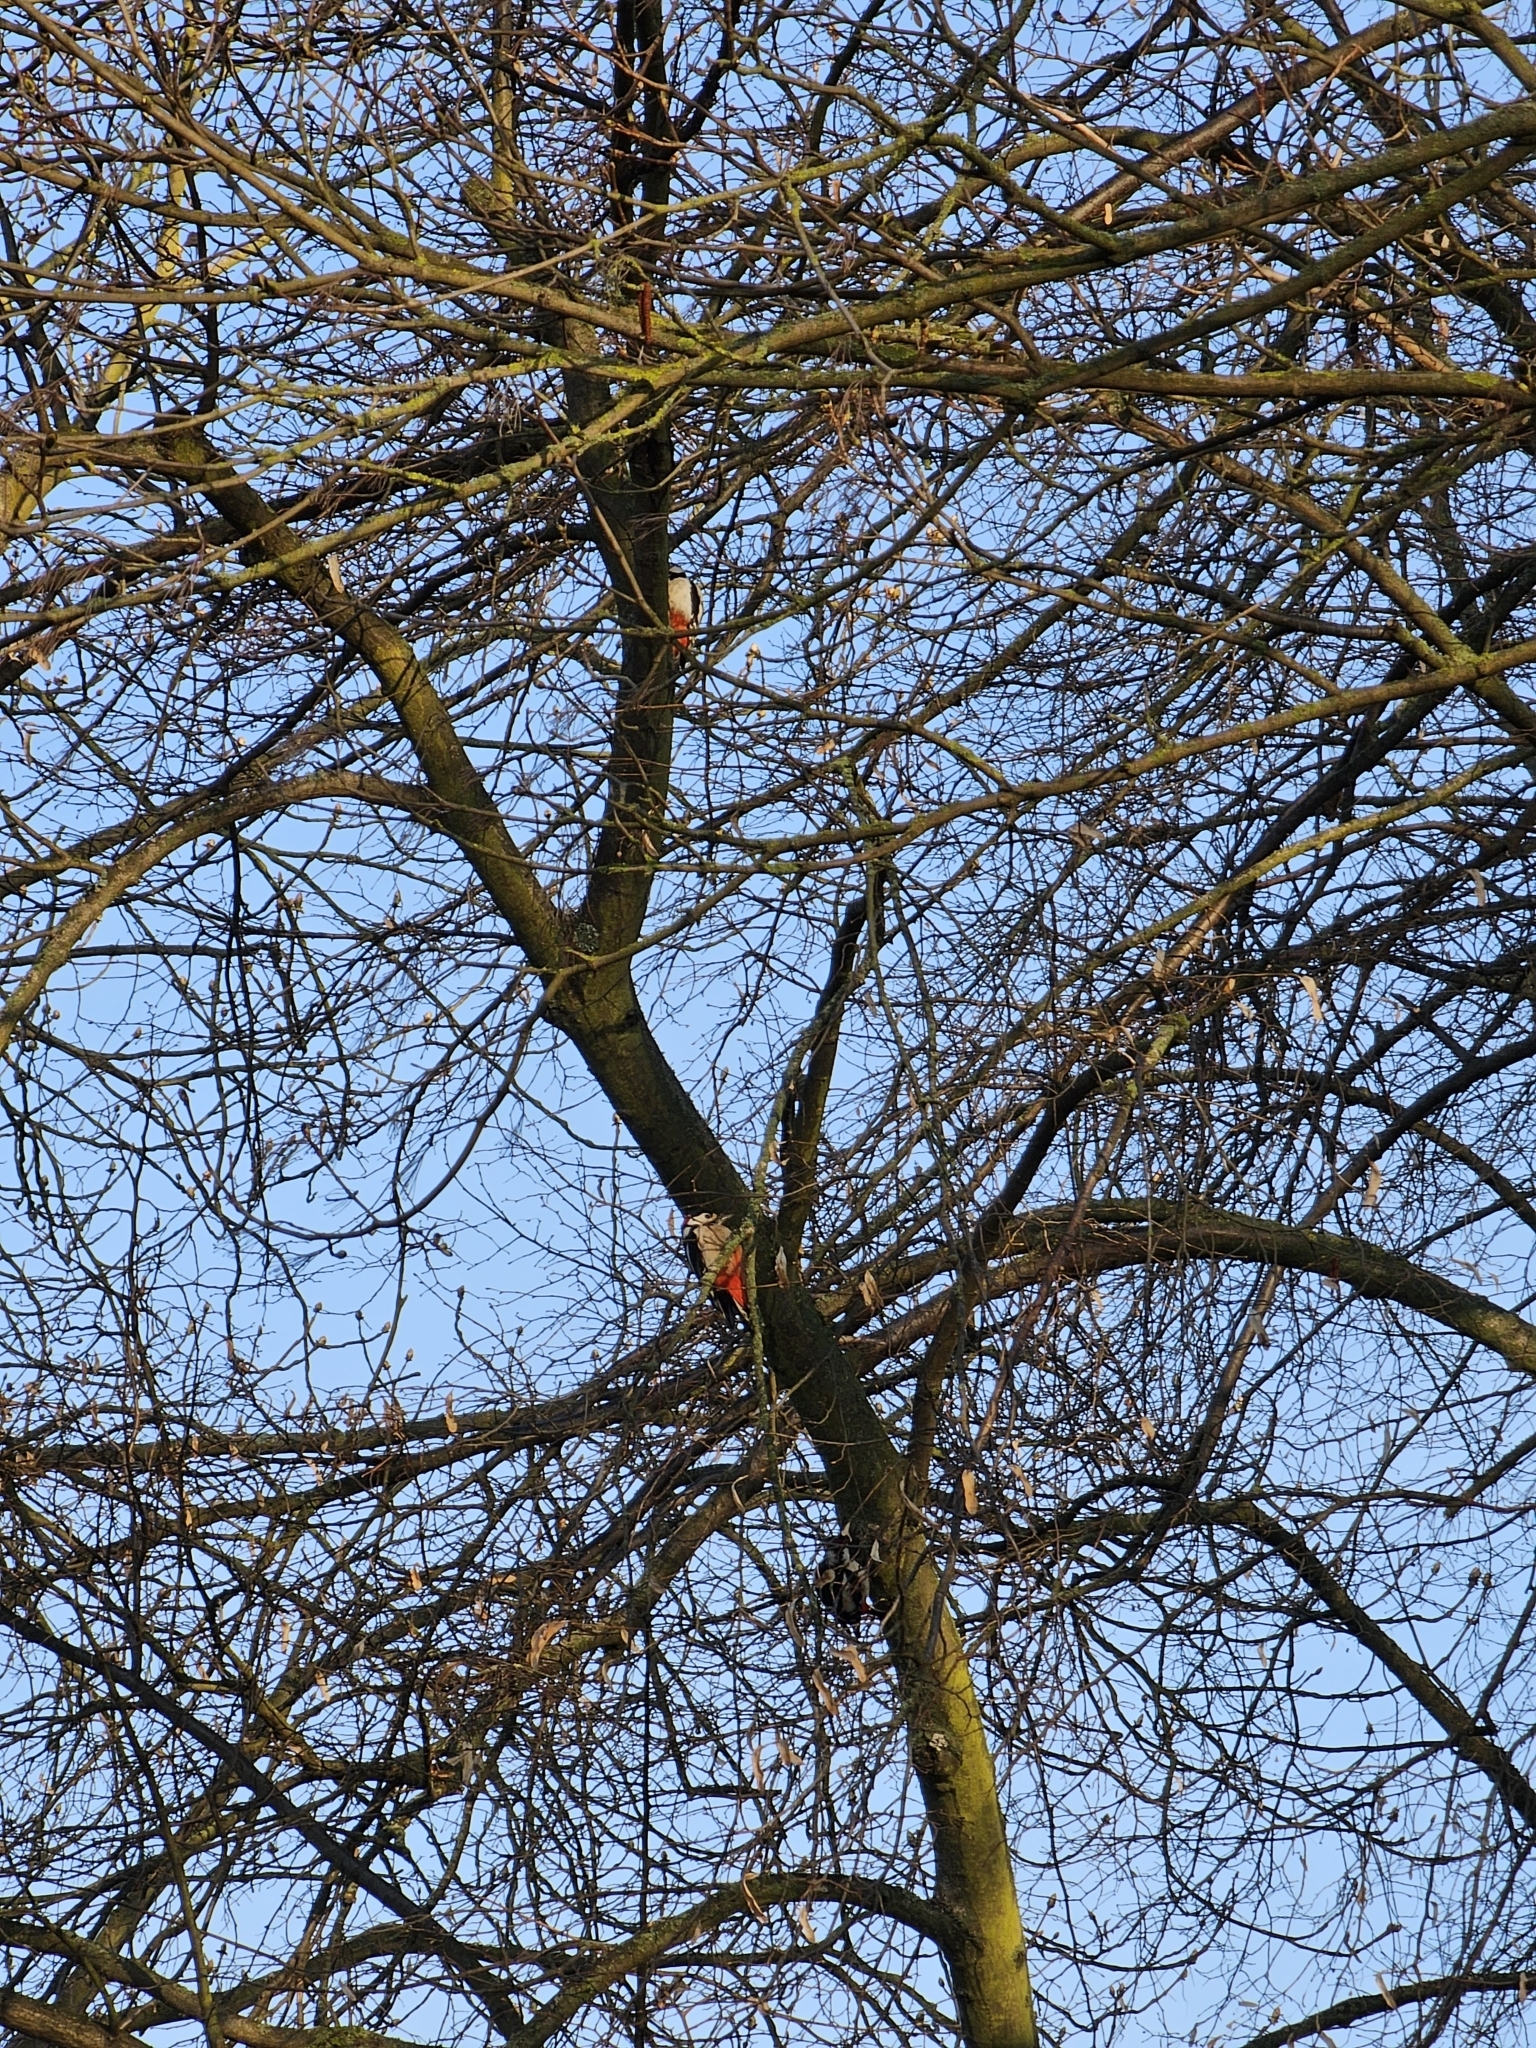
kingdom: Animalia
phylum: Chordata
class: Aves
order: Piciformes
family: Picidae
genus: Dendrocopos
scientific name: Dendrocopos major
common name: Great spotted woodpecker
